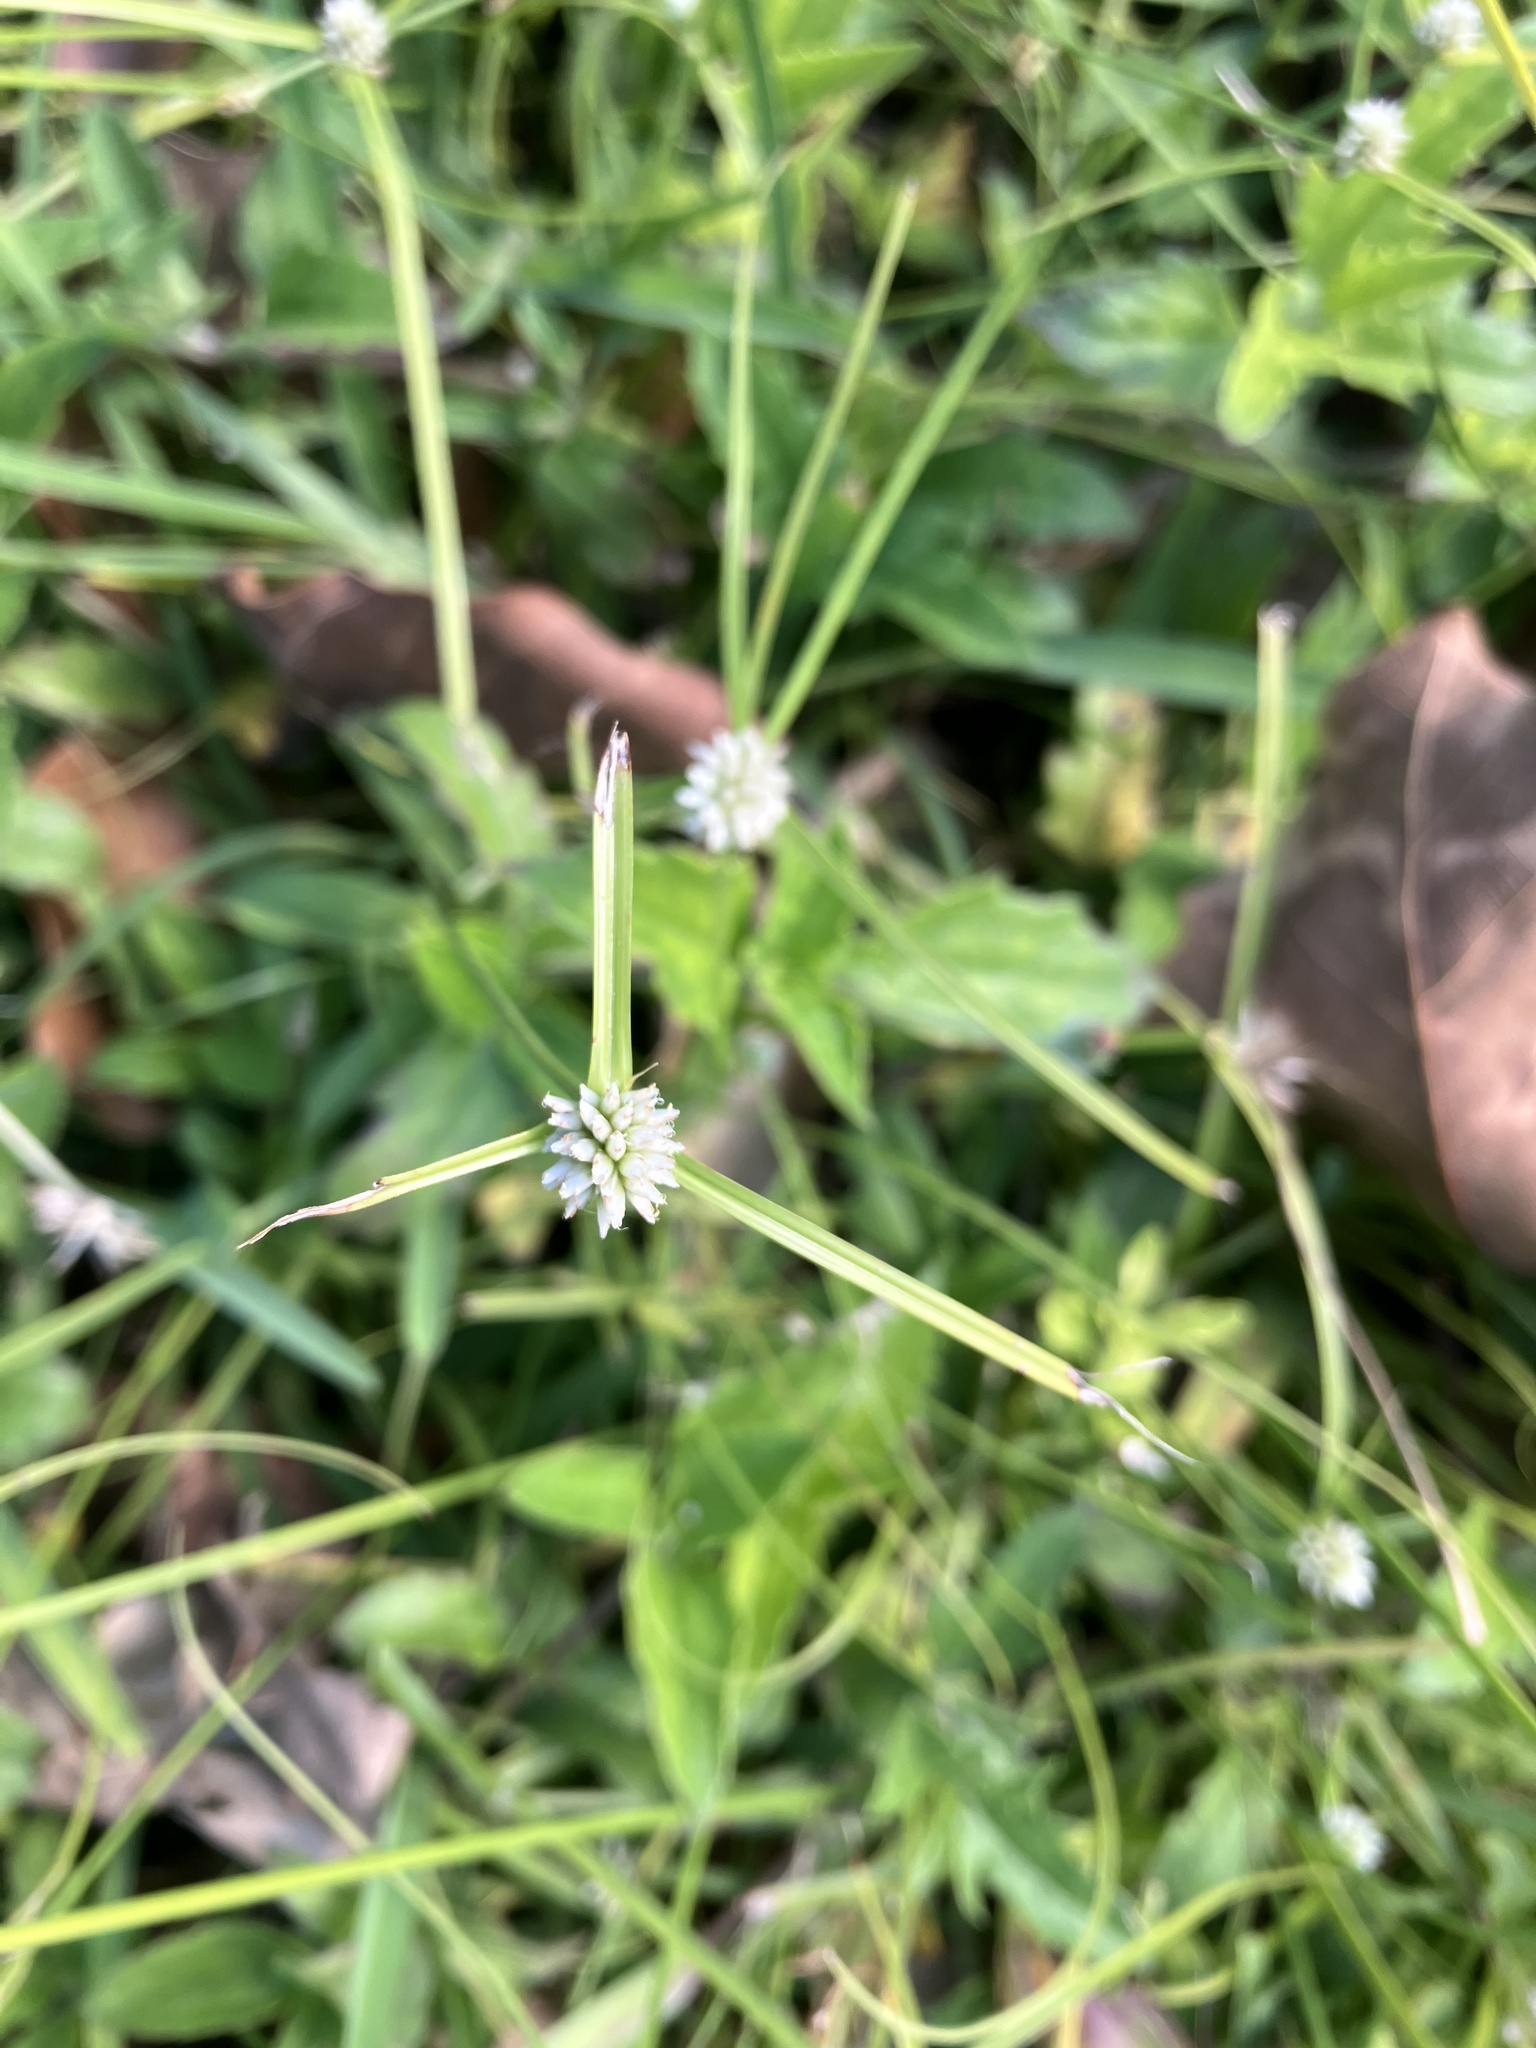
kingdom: Plantae
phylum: Tracheophyta
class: Liliopsida
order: Poales
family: Cyperaceae
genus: Cyperus
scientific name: Cyperus mindorensis
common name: Flatsedge
